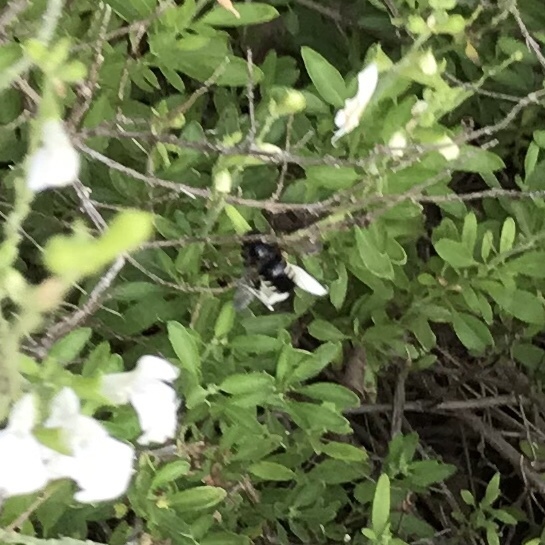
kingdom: Animalia
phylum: Arthropoda
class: Insecta
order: Hymenoptera
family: Apidae
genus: Xylocopa
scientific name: Xylocopa tabaniformis
